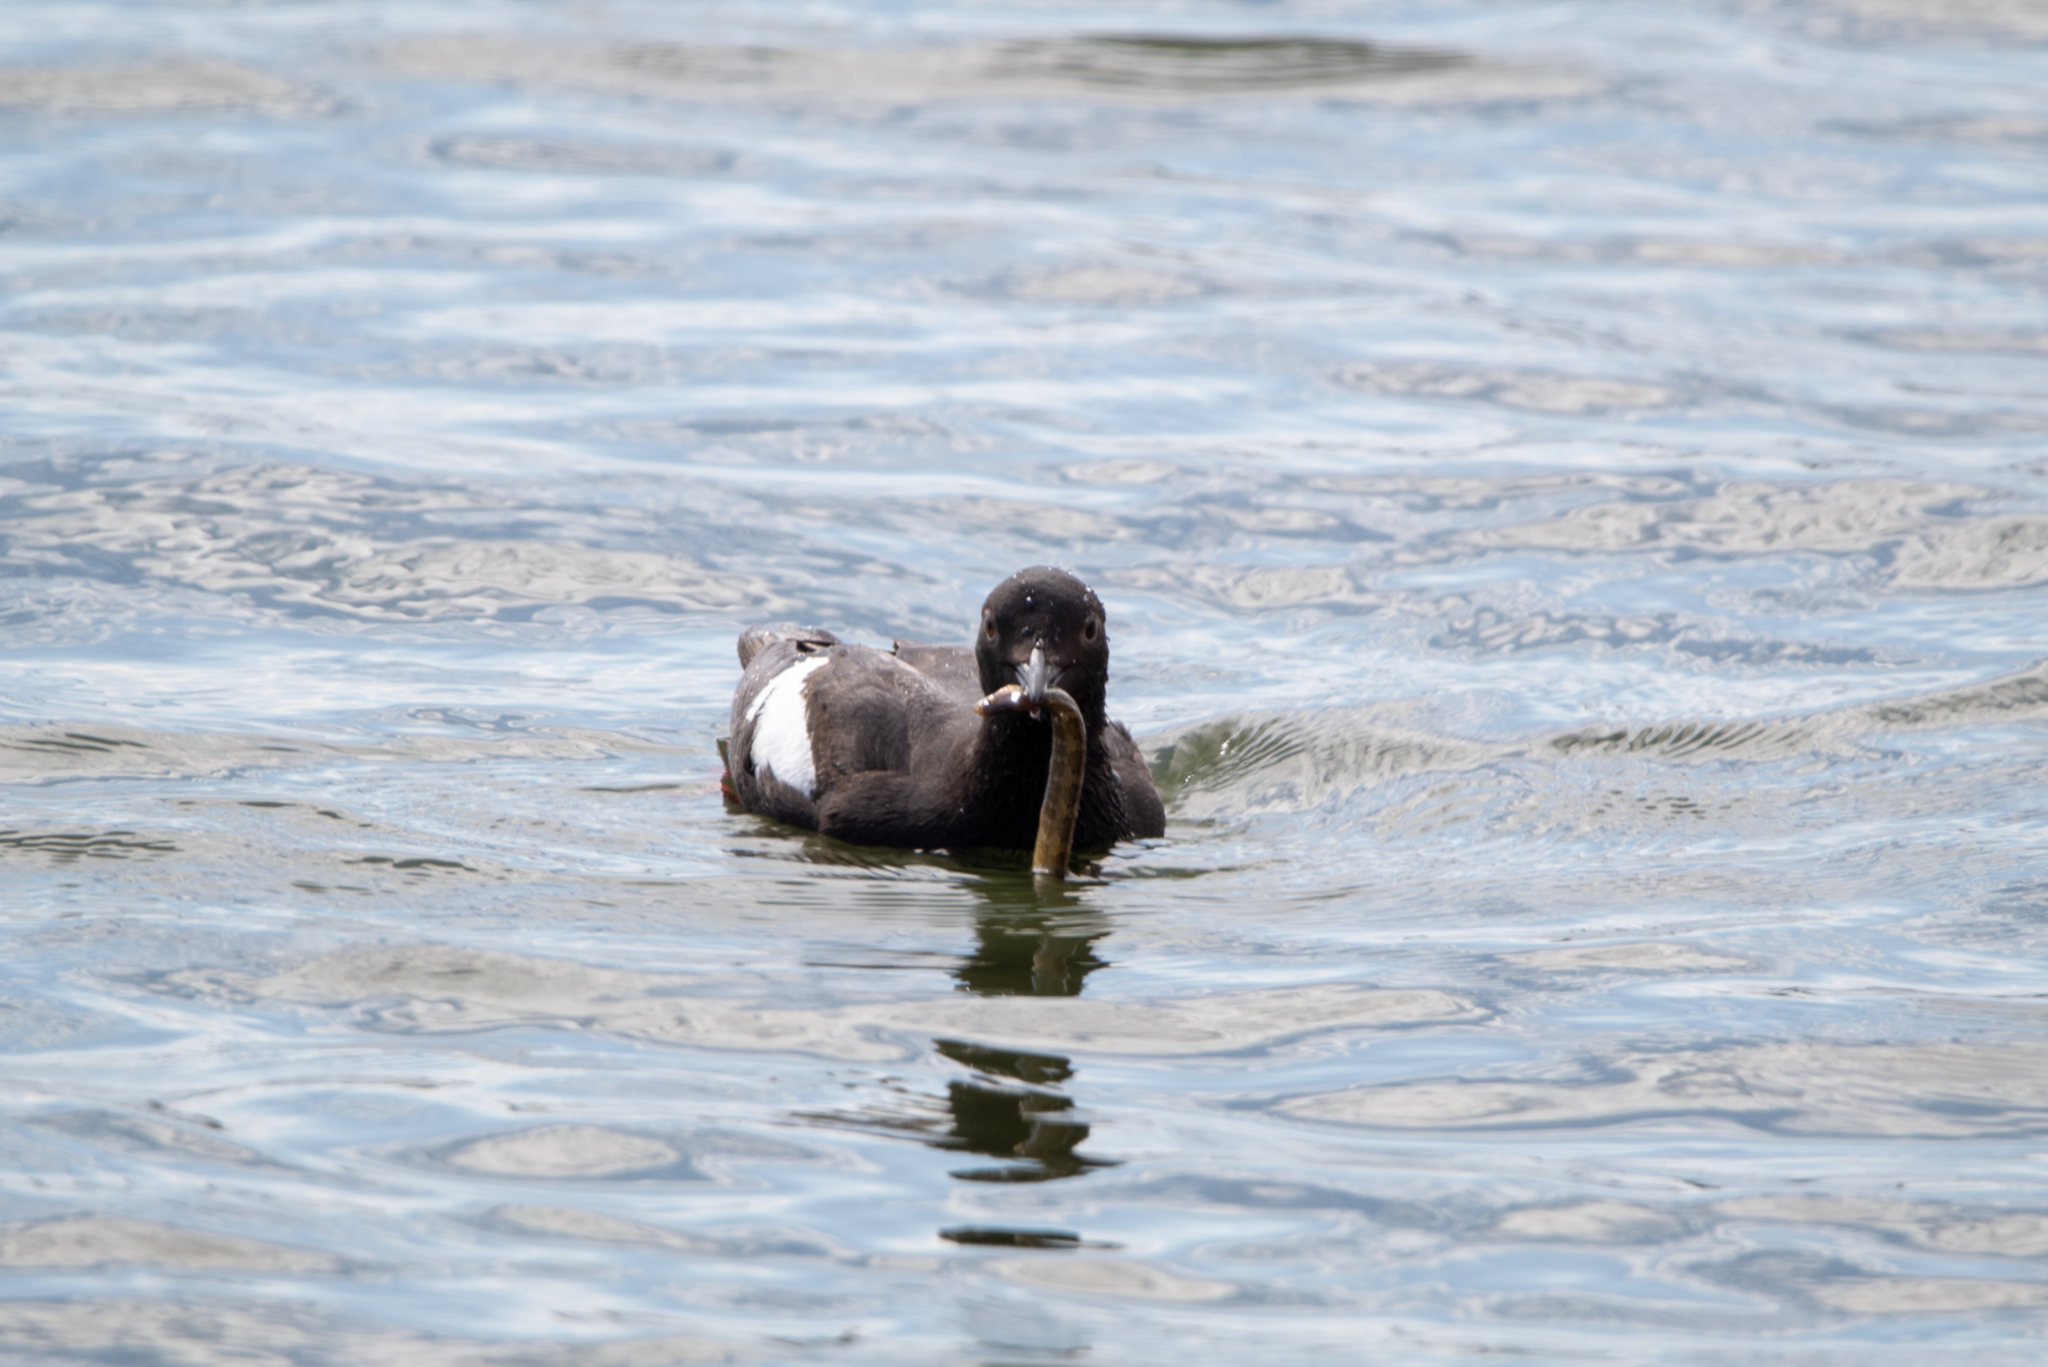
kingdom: Animalia
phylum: Chordata
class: Aves
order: Charadriiformes
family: Alcidae
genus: Cepphus
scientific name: Cepphus columba
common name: Pigeon guillemot
